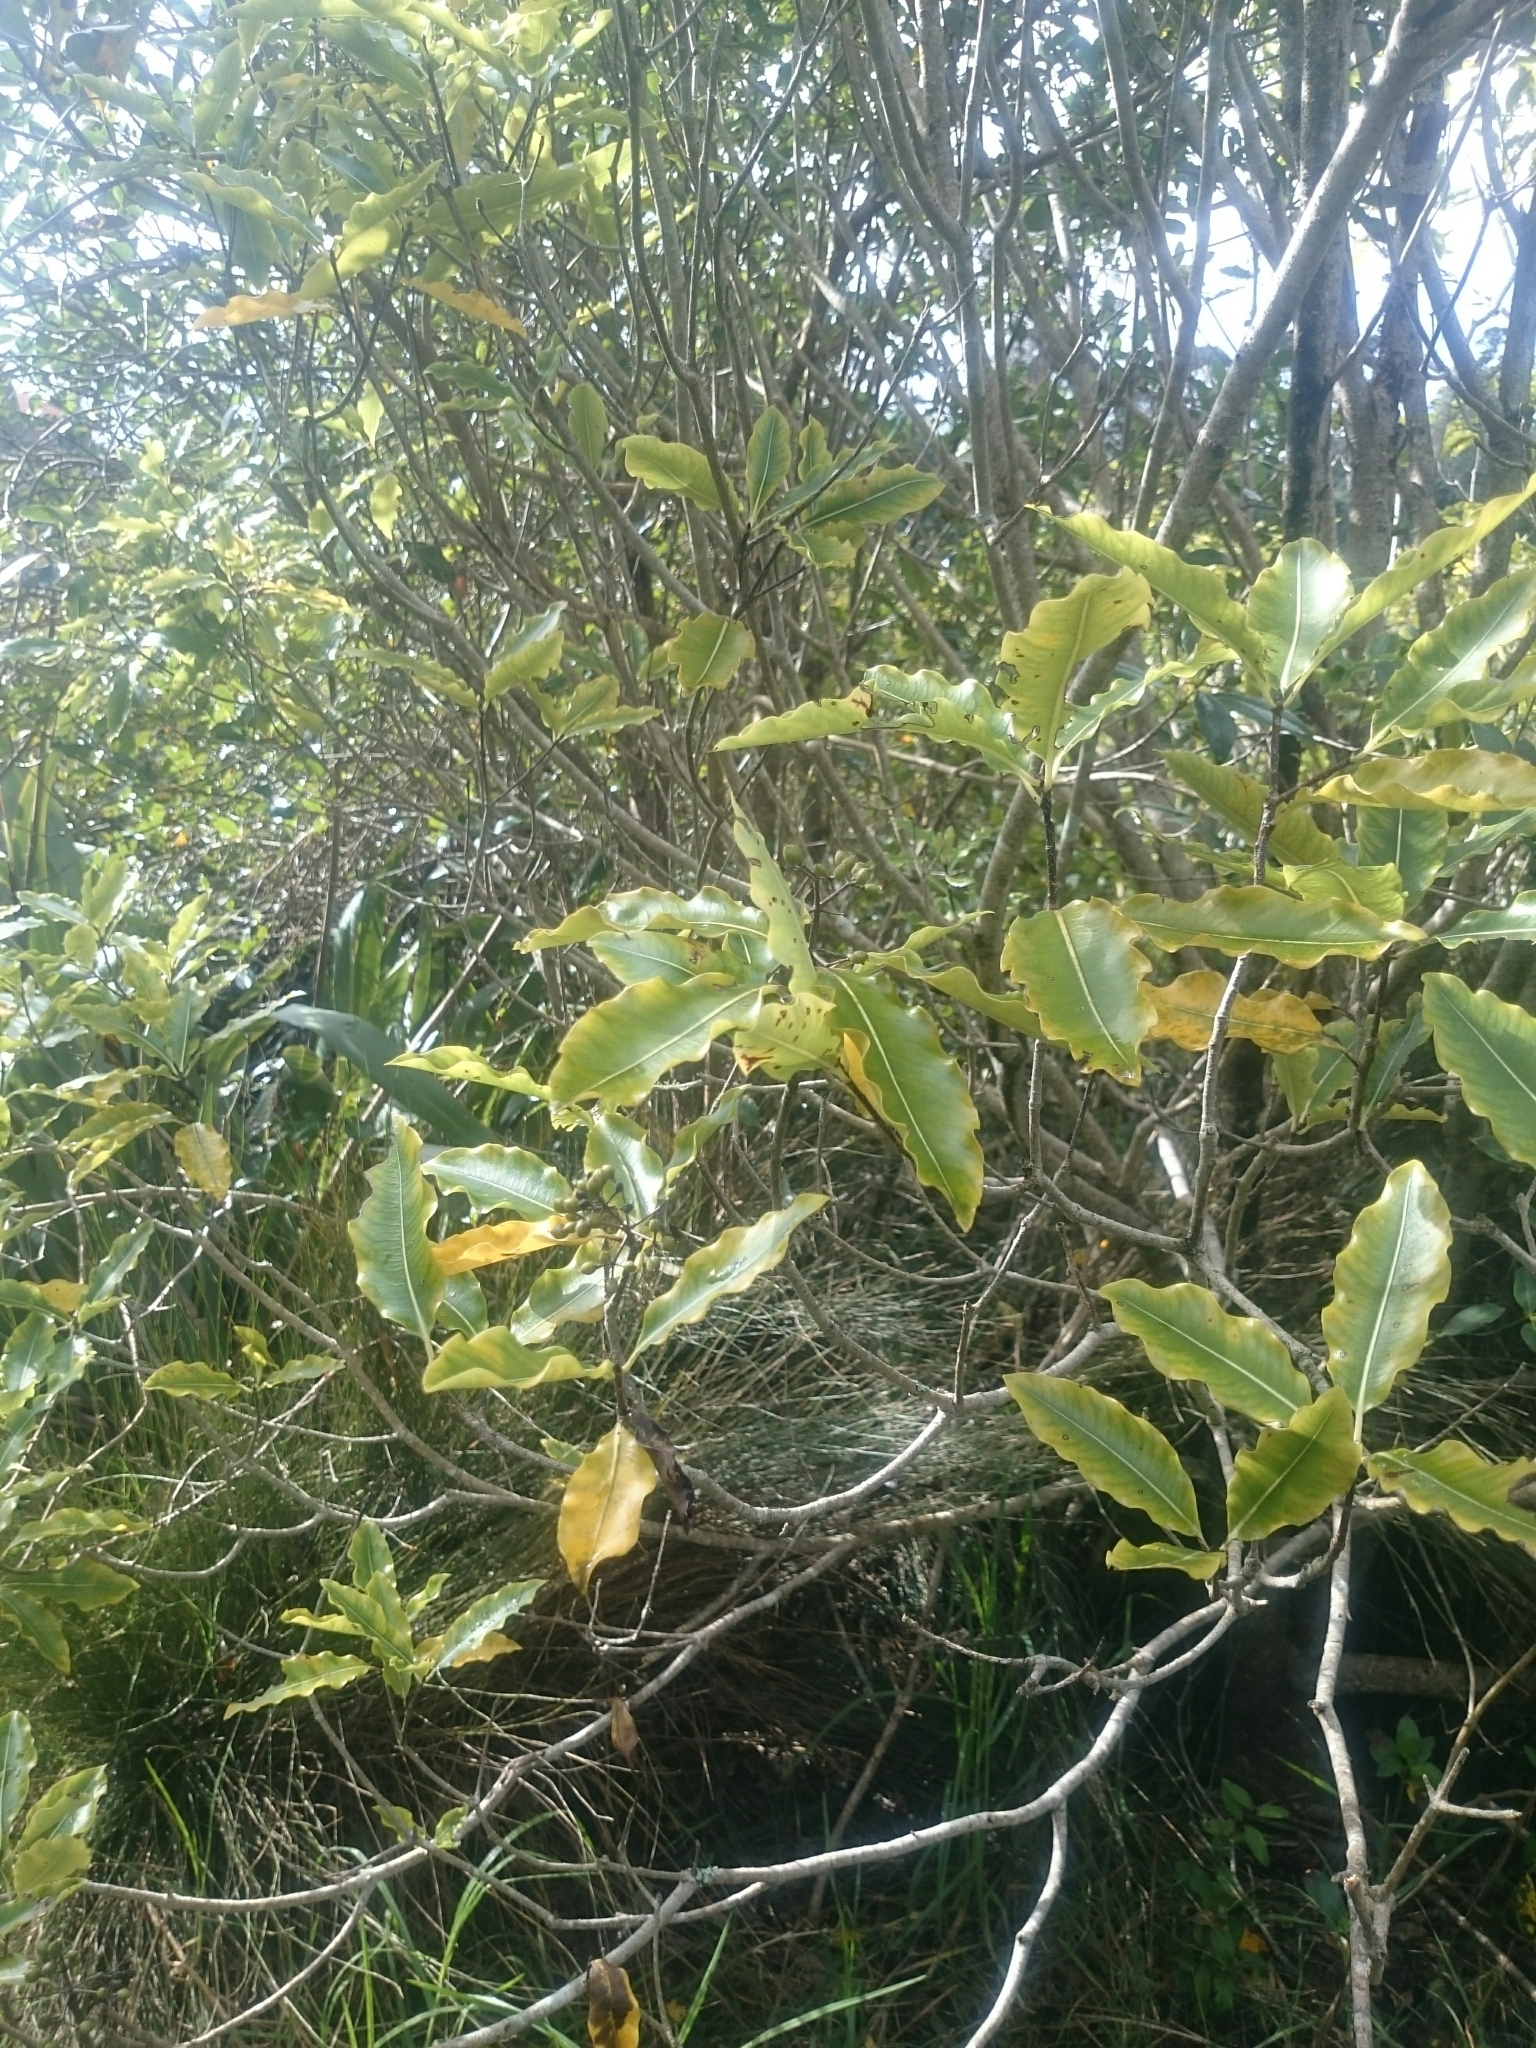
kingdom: Plantae
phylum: Tracheophyta
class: Magnoliopsida
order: Apiales
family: Pittosporaceae
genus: Pittosporum
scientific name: Pittosporum eugenioides
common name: Lemonwood
